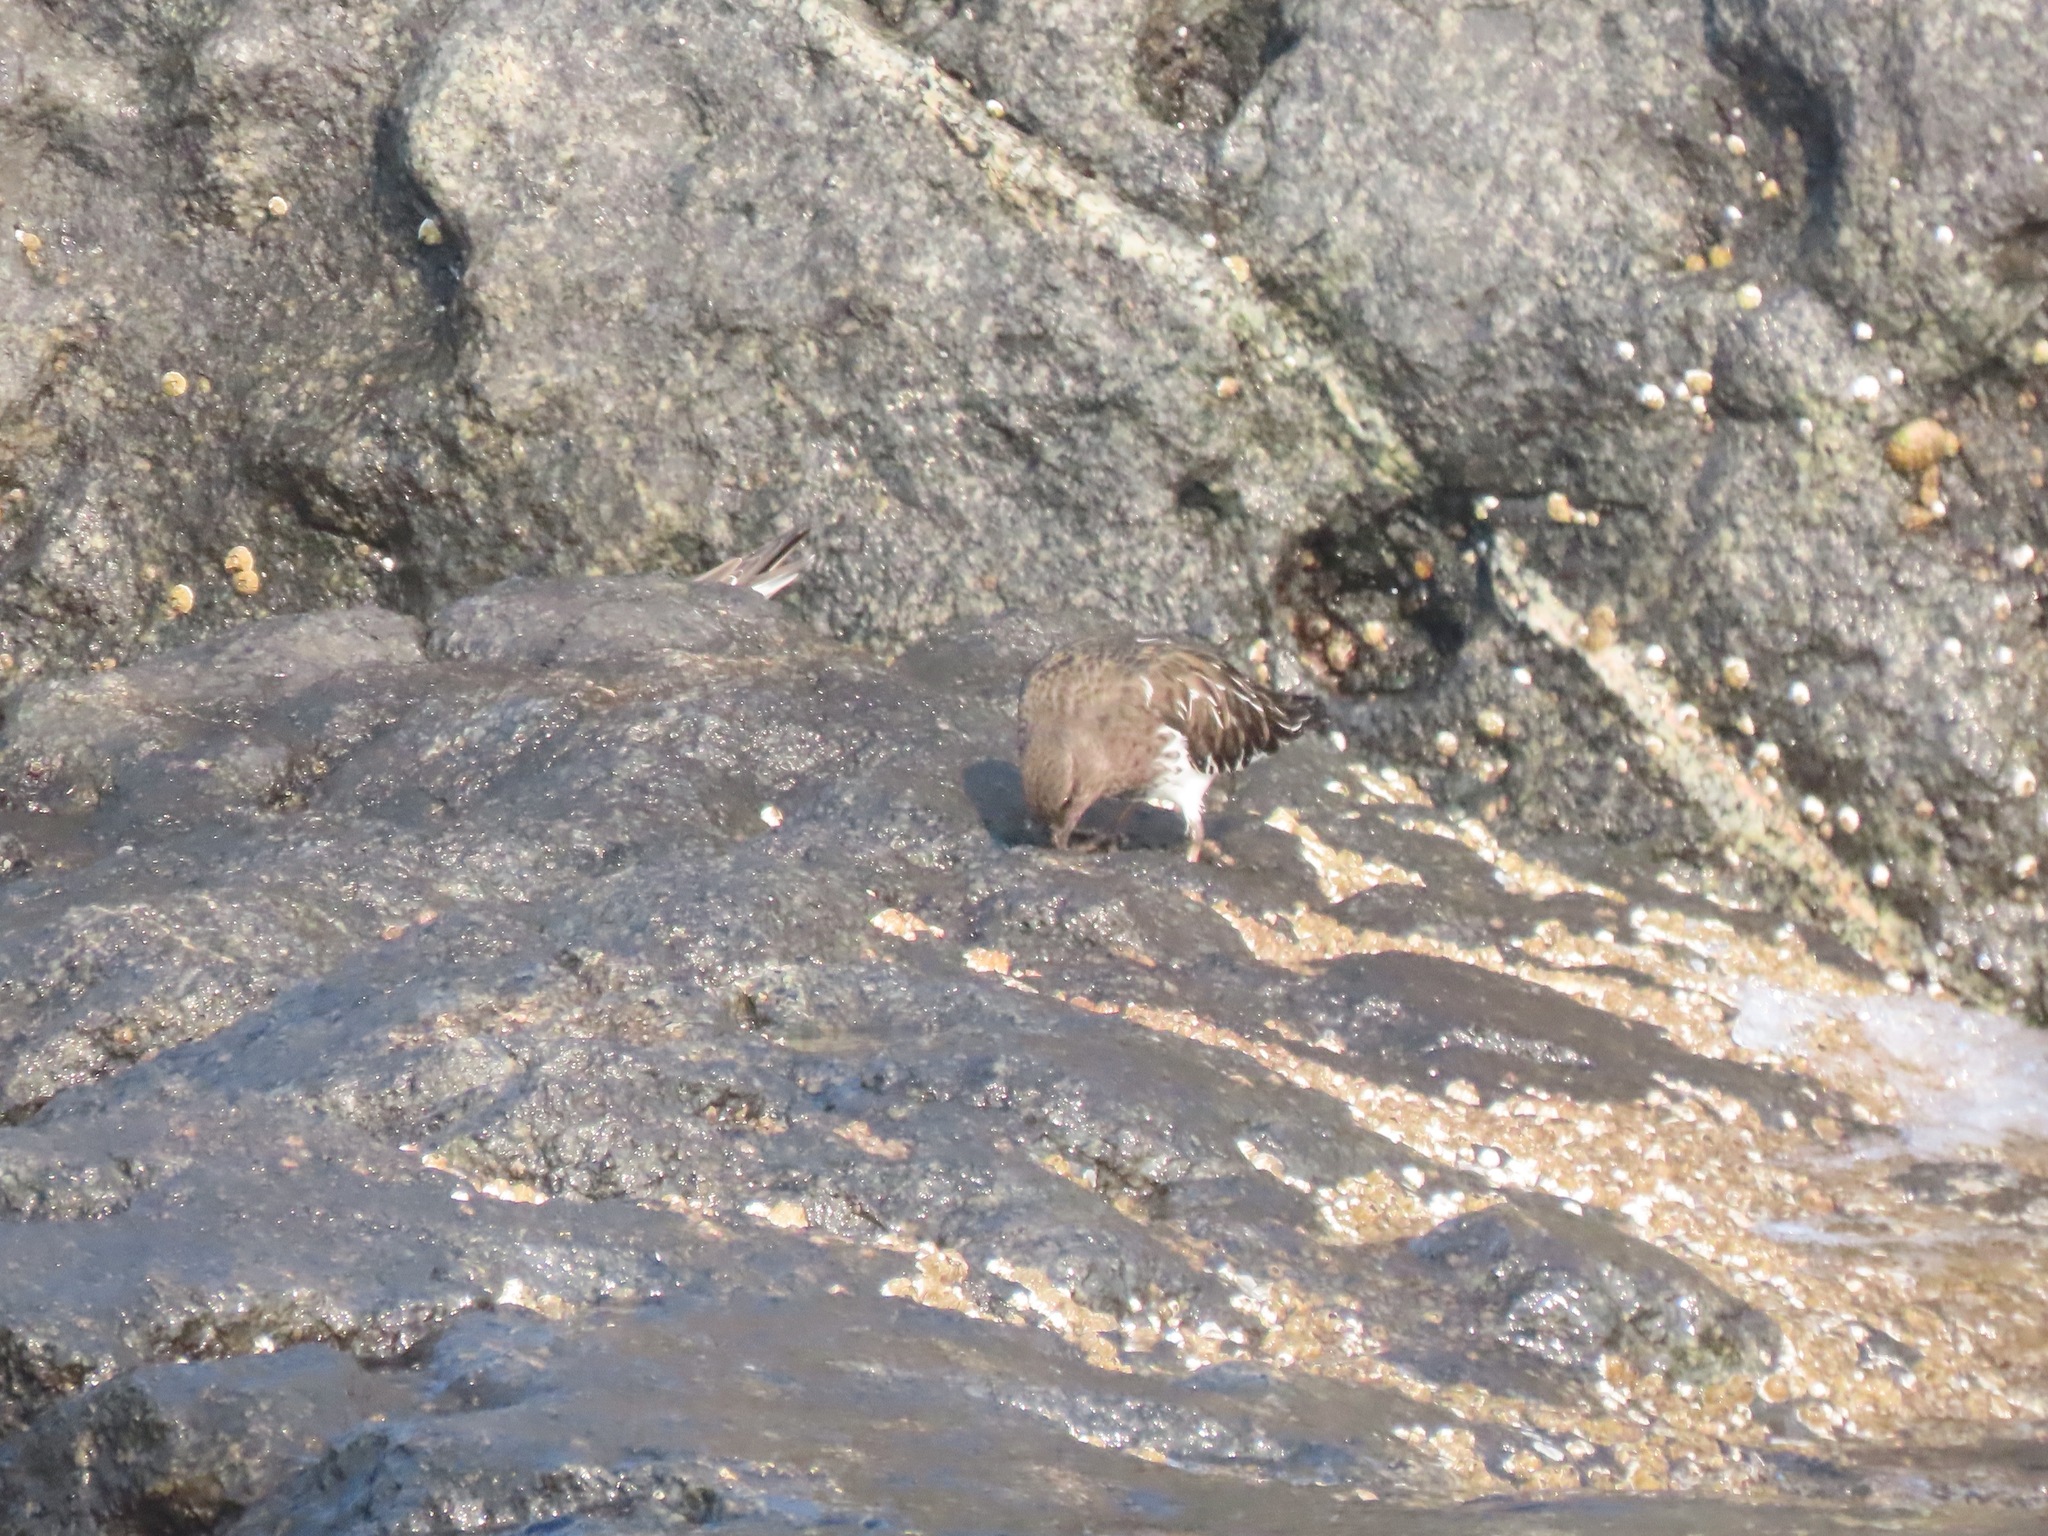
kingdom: Animalia
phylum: Chordata
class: Aves
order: Charadriiformes
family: Scolopacidae
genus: Arenaria
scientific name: Arenaria melanocephala
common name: Black turnstone
